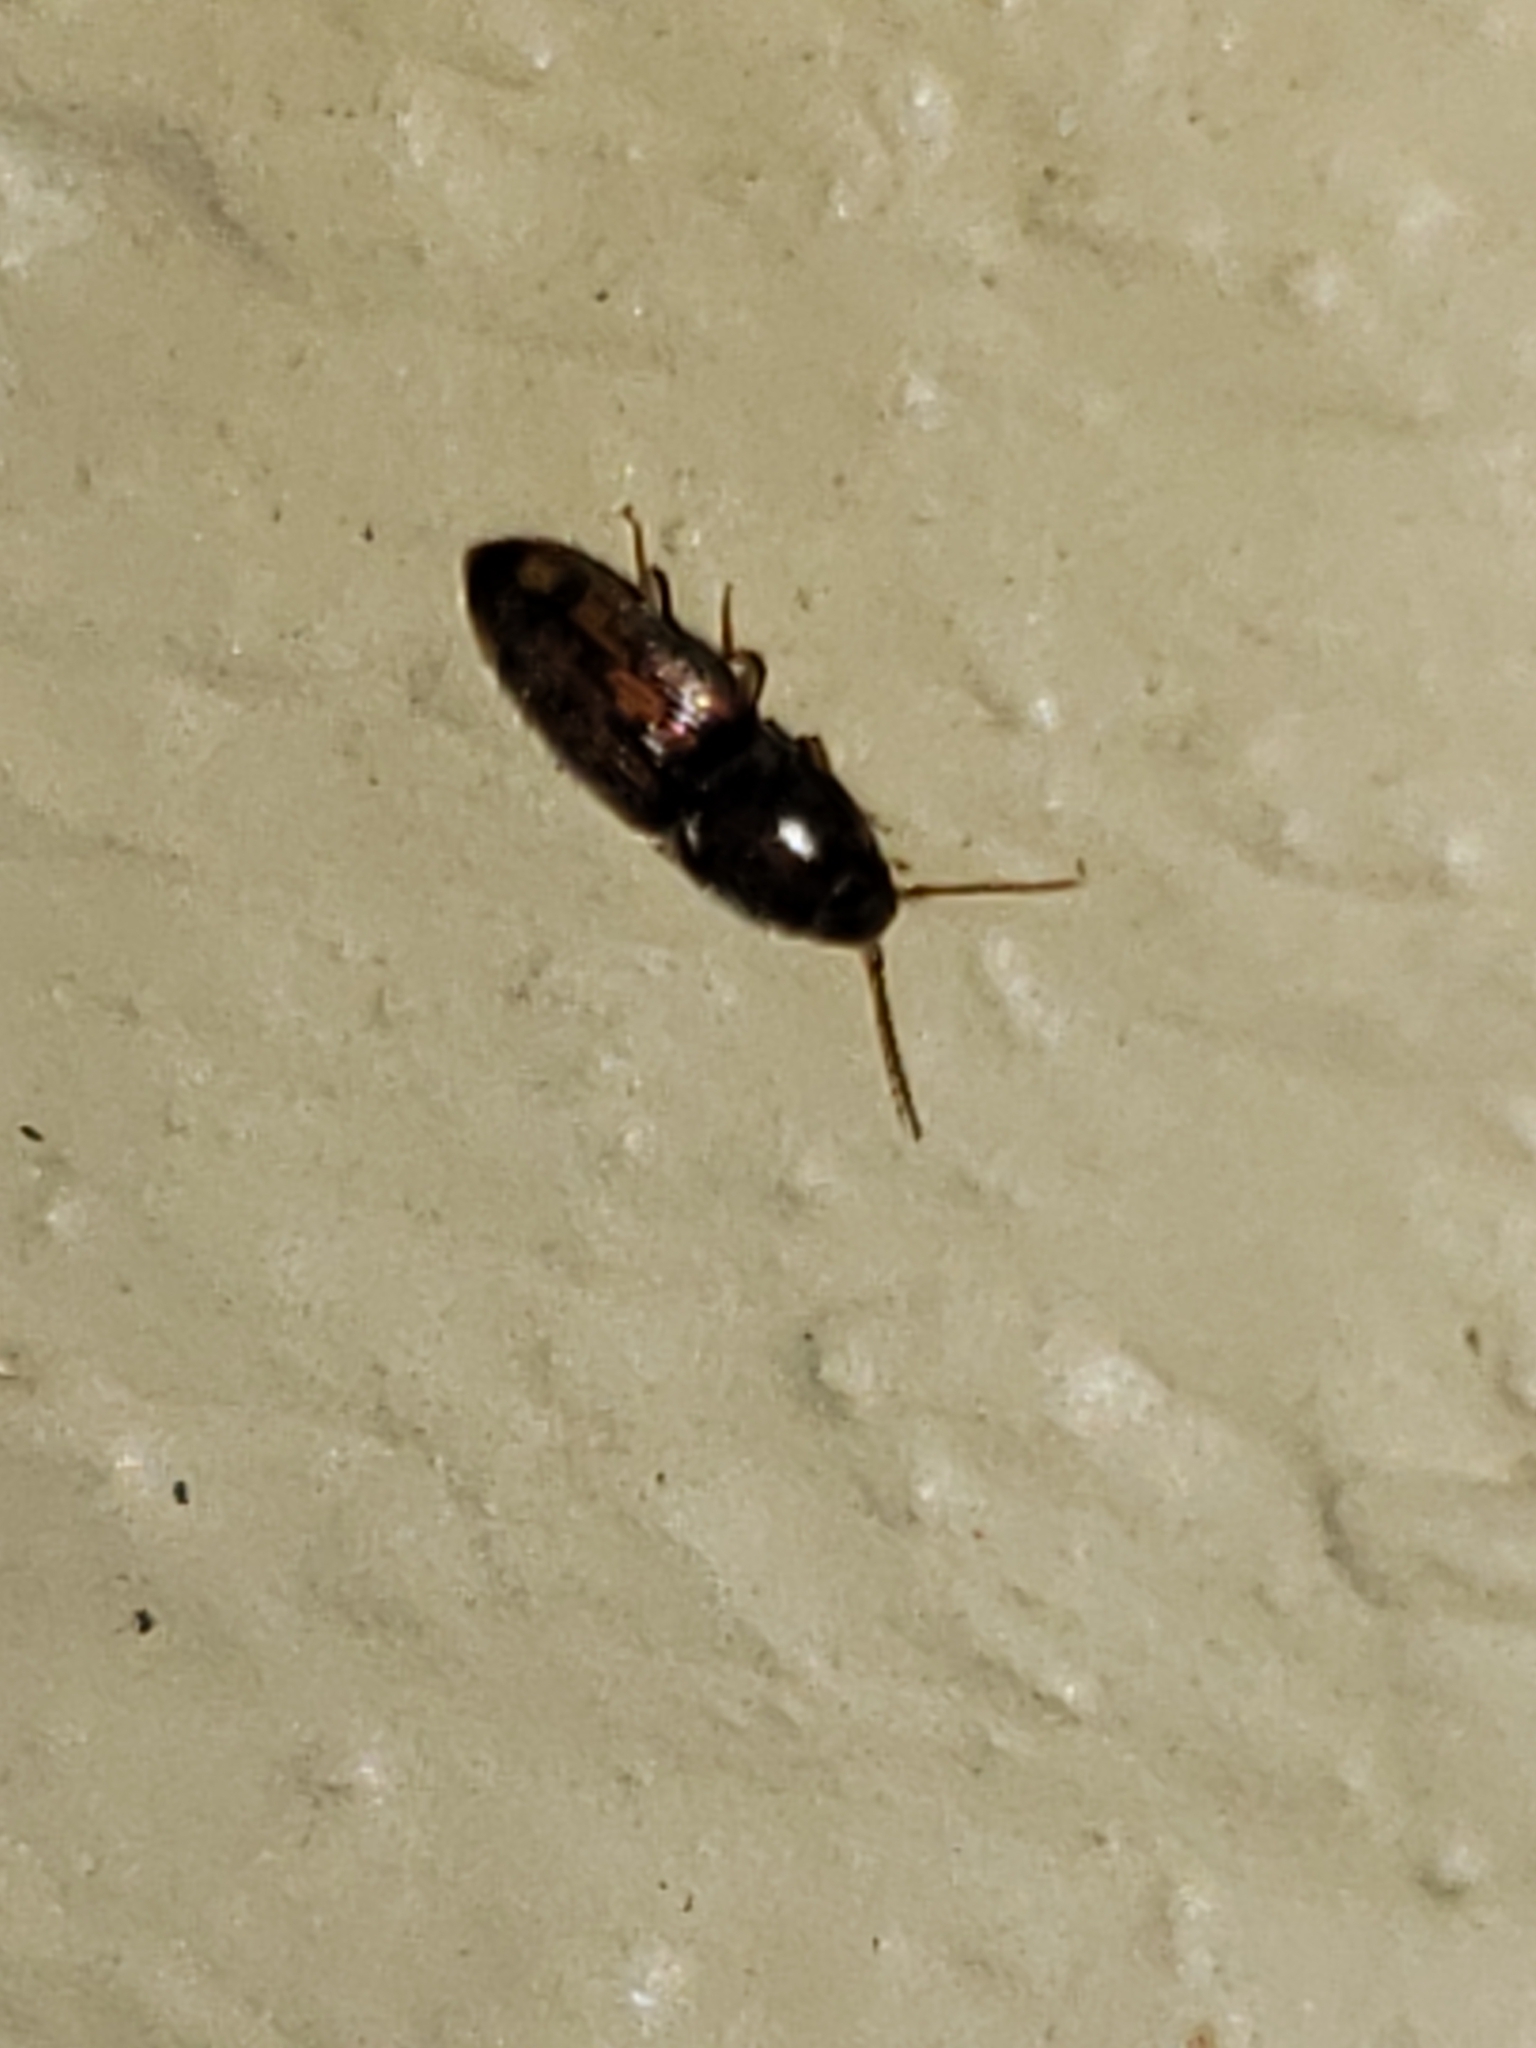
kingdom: Animalia
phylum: Arthropoda
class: Insecta
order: Coleoptera
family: Elateridae
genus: Monocrepidius
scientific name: Monocrepidius bellus
